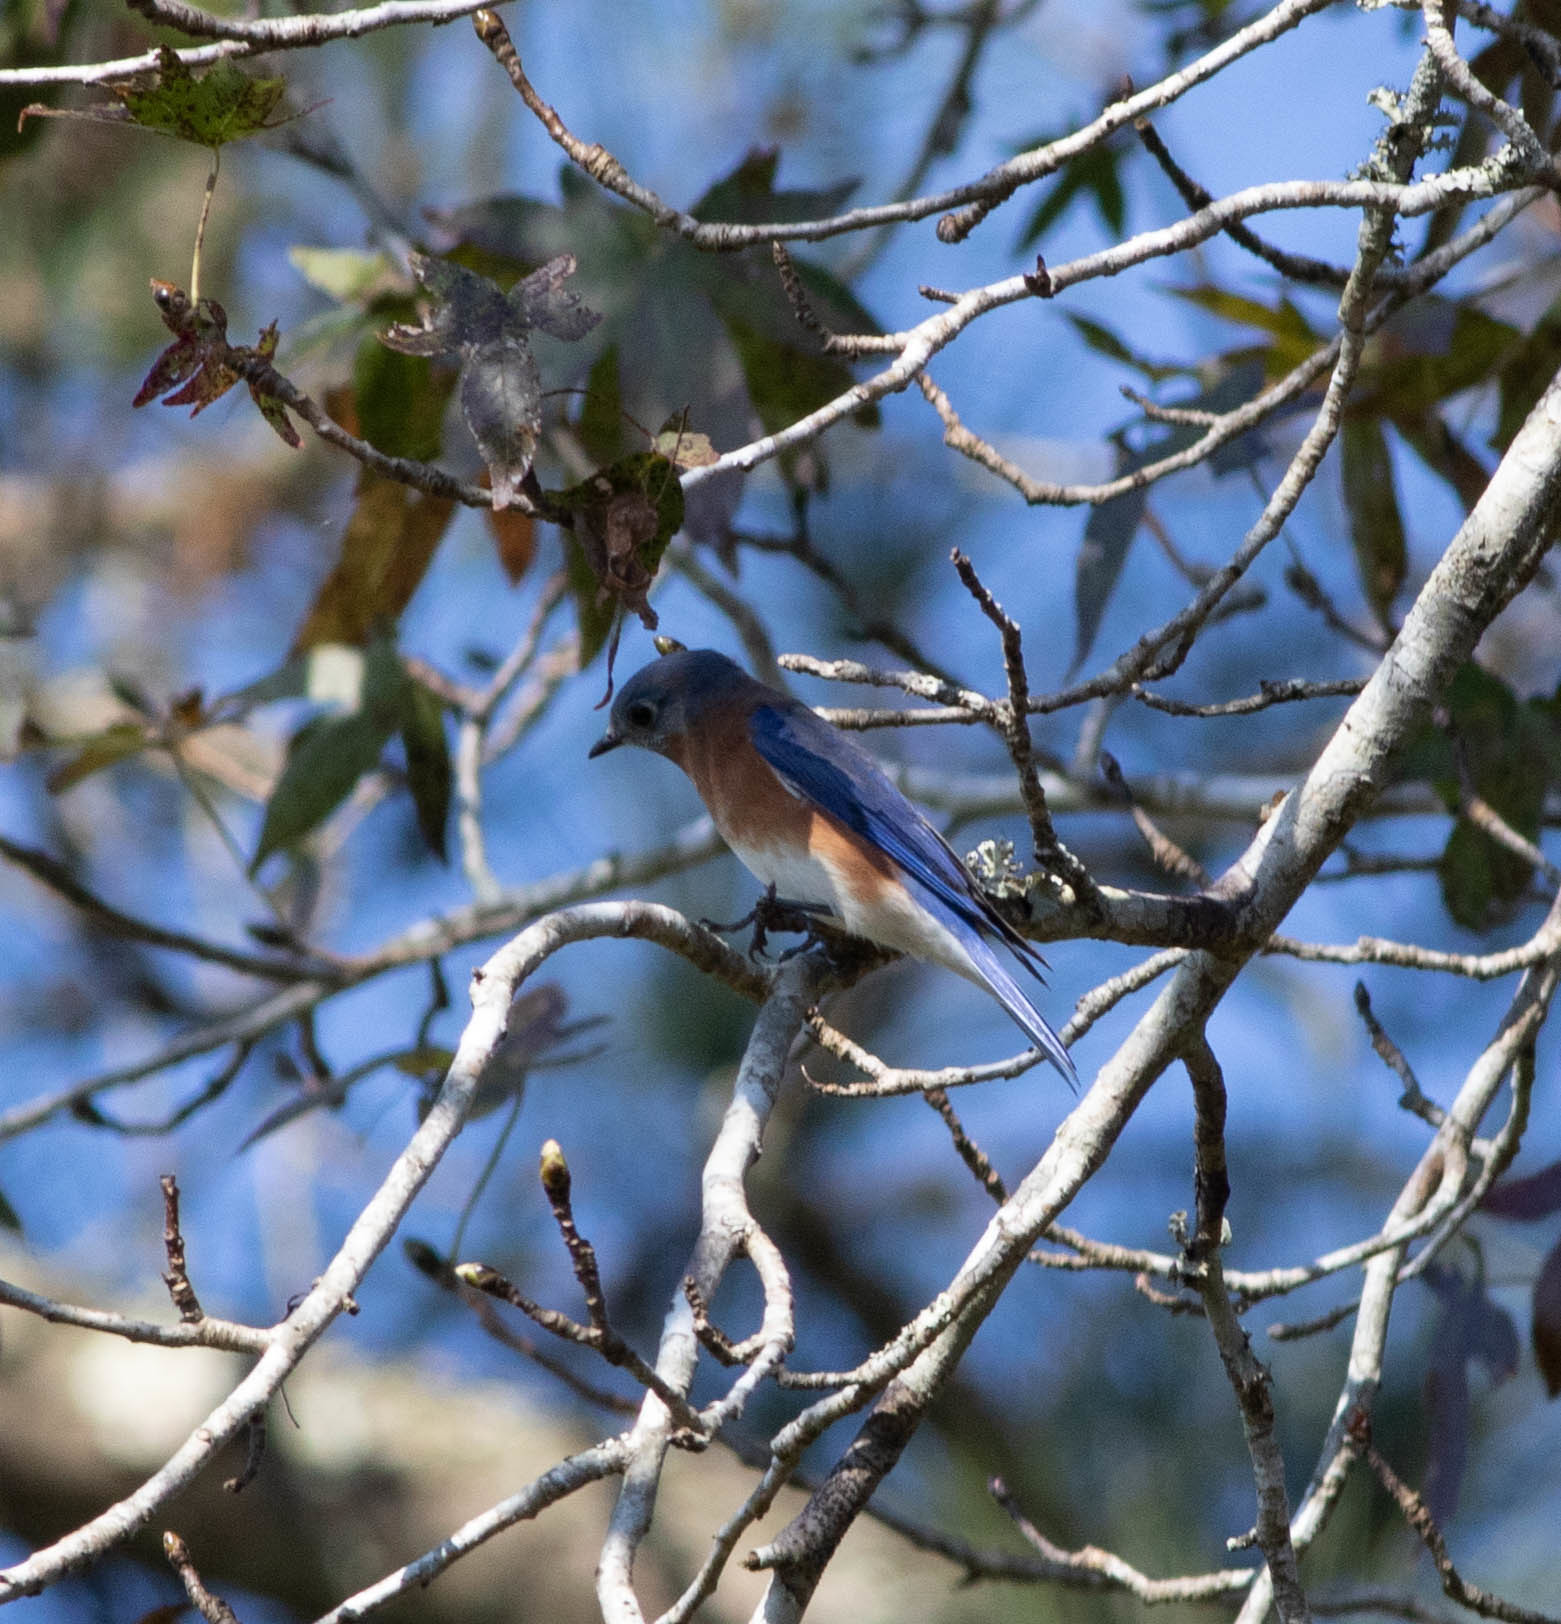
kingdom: Animalia
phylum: Chordata
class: Aves
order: Passeriformes
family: Turdidae
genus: Sialia
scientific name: Sialia sialis
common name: Eastern bluebird
